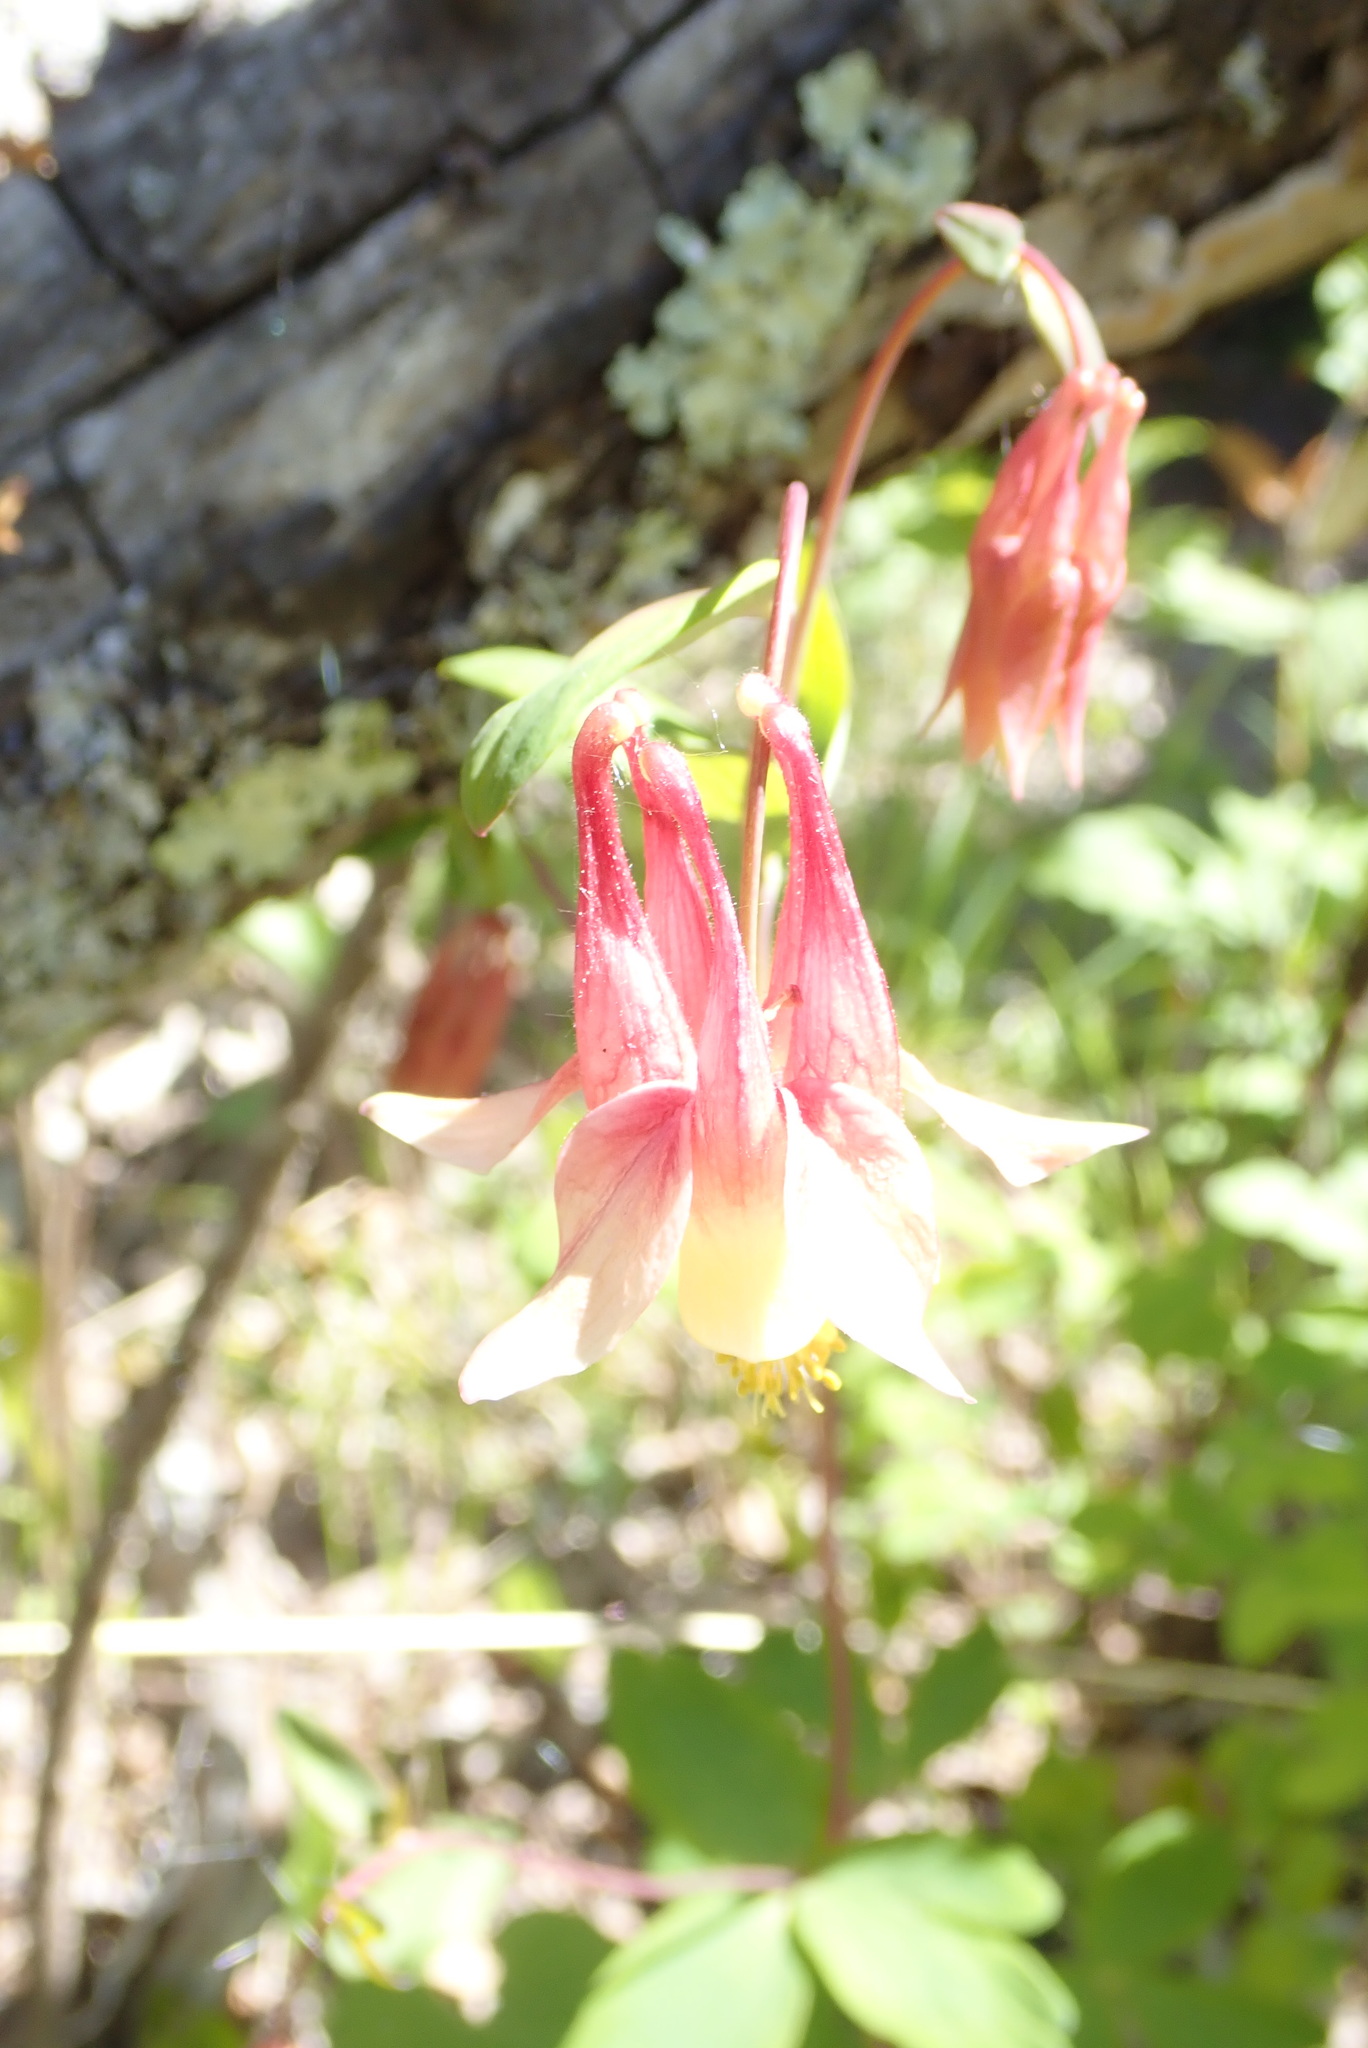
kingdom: Plantae
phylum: Tracheophyta
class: Magnoliopsida
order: Ranunculales
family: Ranunculaceae
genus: Aquilegia
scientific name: Aquilegia canadensis
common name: American columbine
